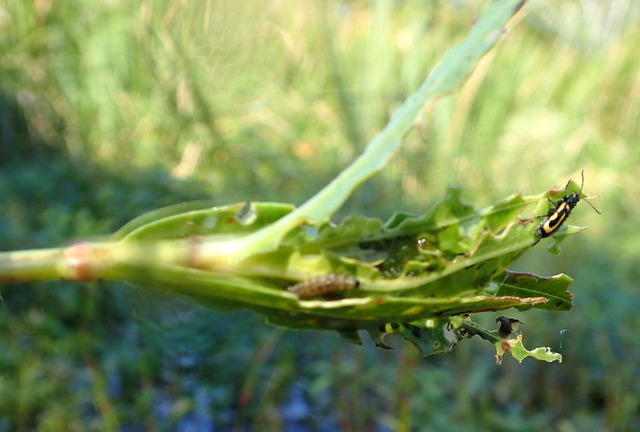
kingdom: Animalia
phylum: Arthropoda
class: Insecta
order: Coleoptera
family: Chrysomelidae
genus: Agasicles
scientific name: Agasicles hygrophila
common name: Alligatorweed flea beetle
